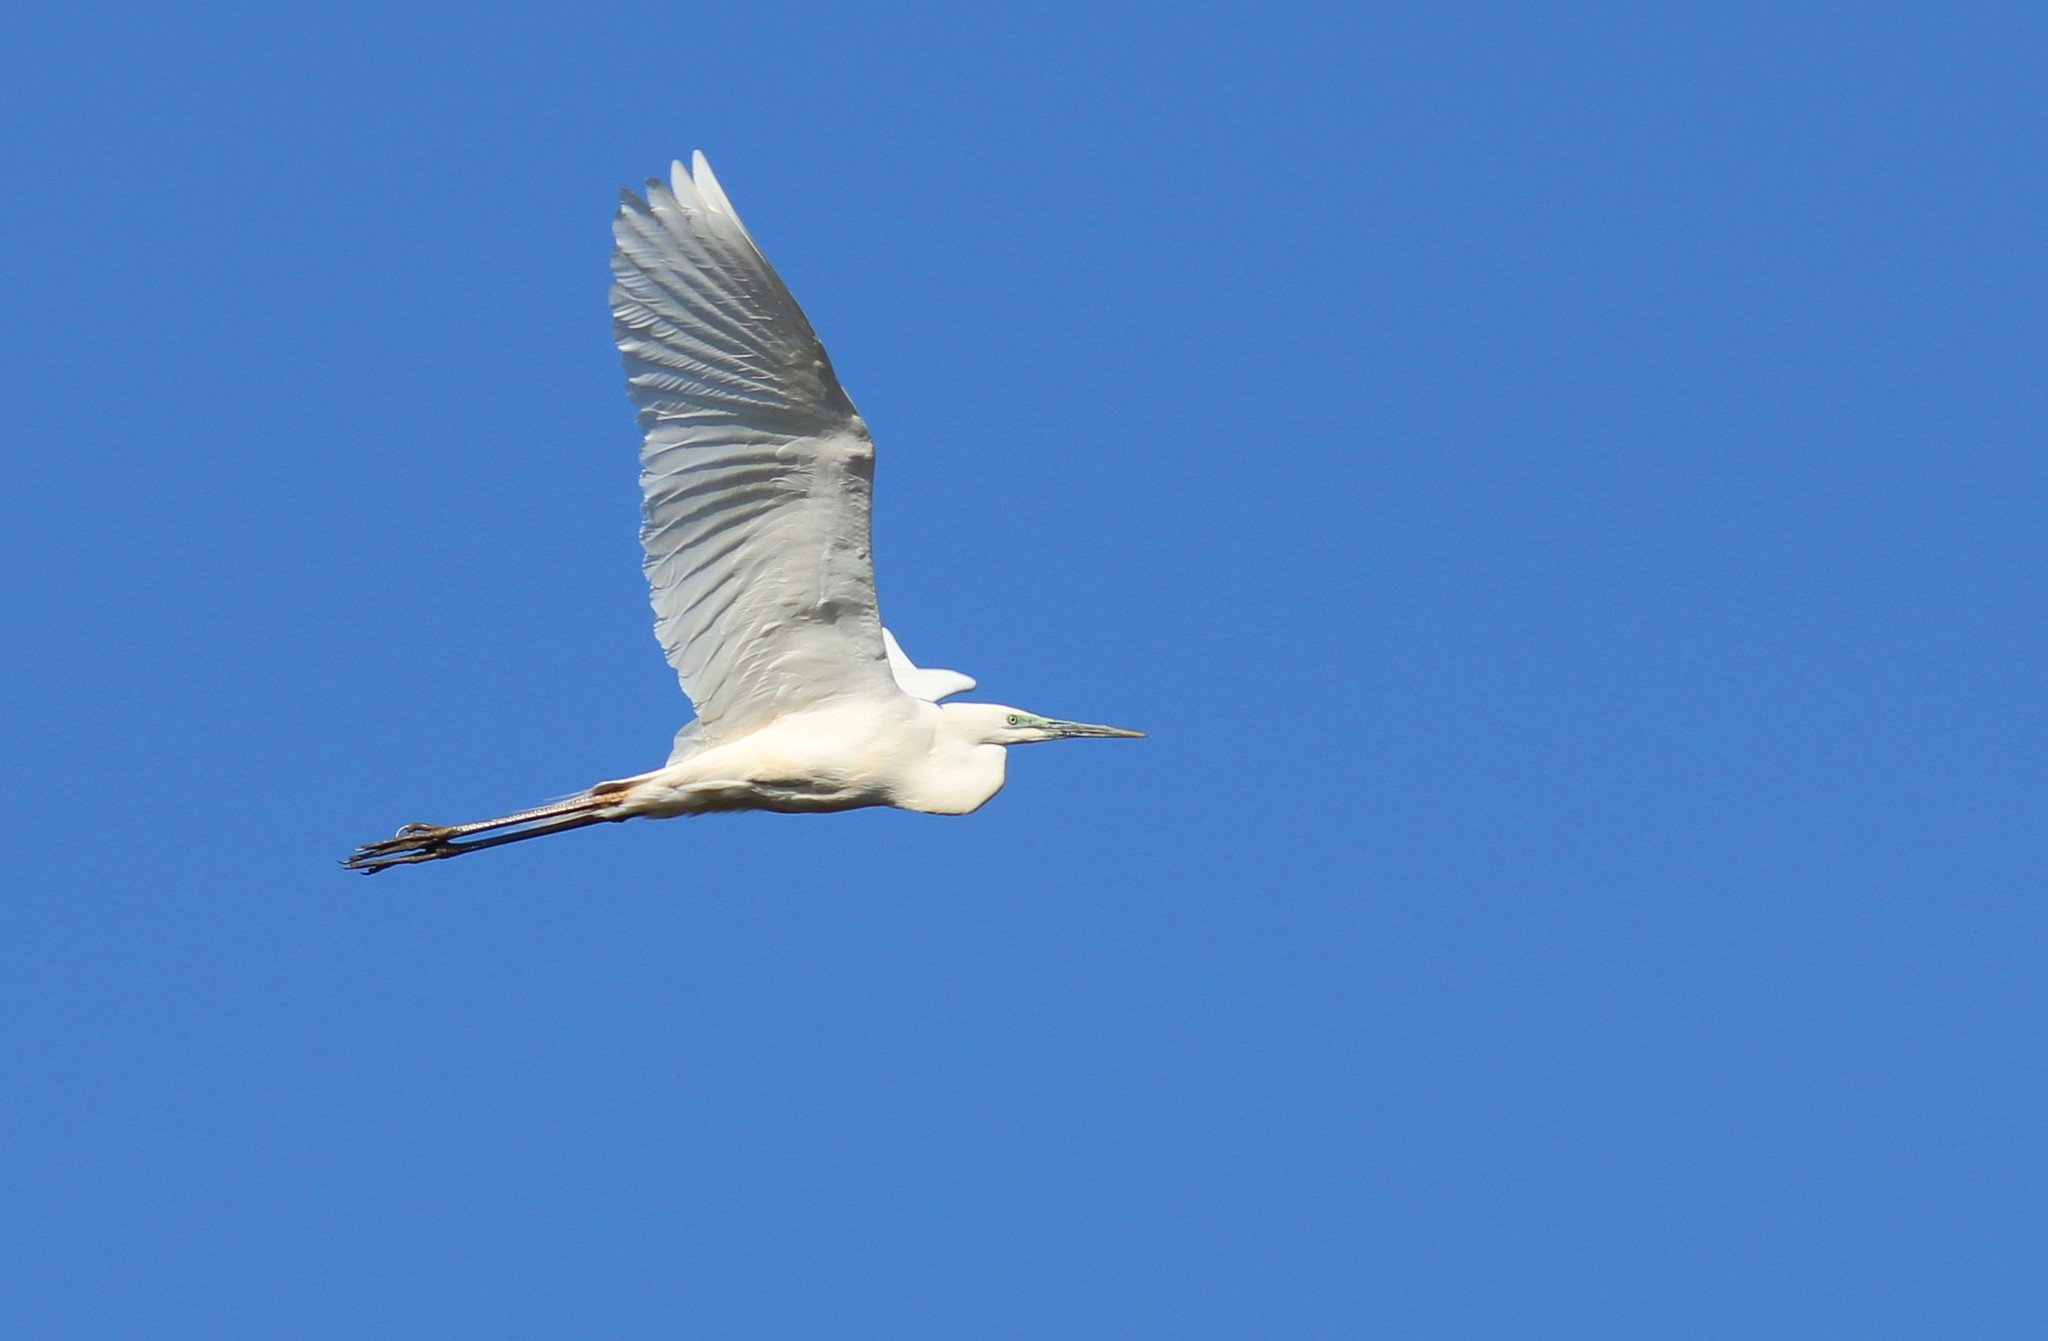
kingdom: Animalia
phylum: Chordata
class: Aves
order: Pelecaniformes
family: Ardeidae
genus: Ardea
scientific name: Ardea alba
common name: Great egret
